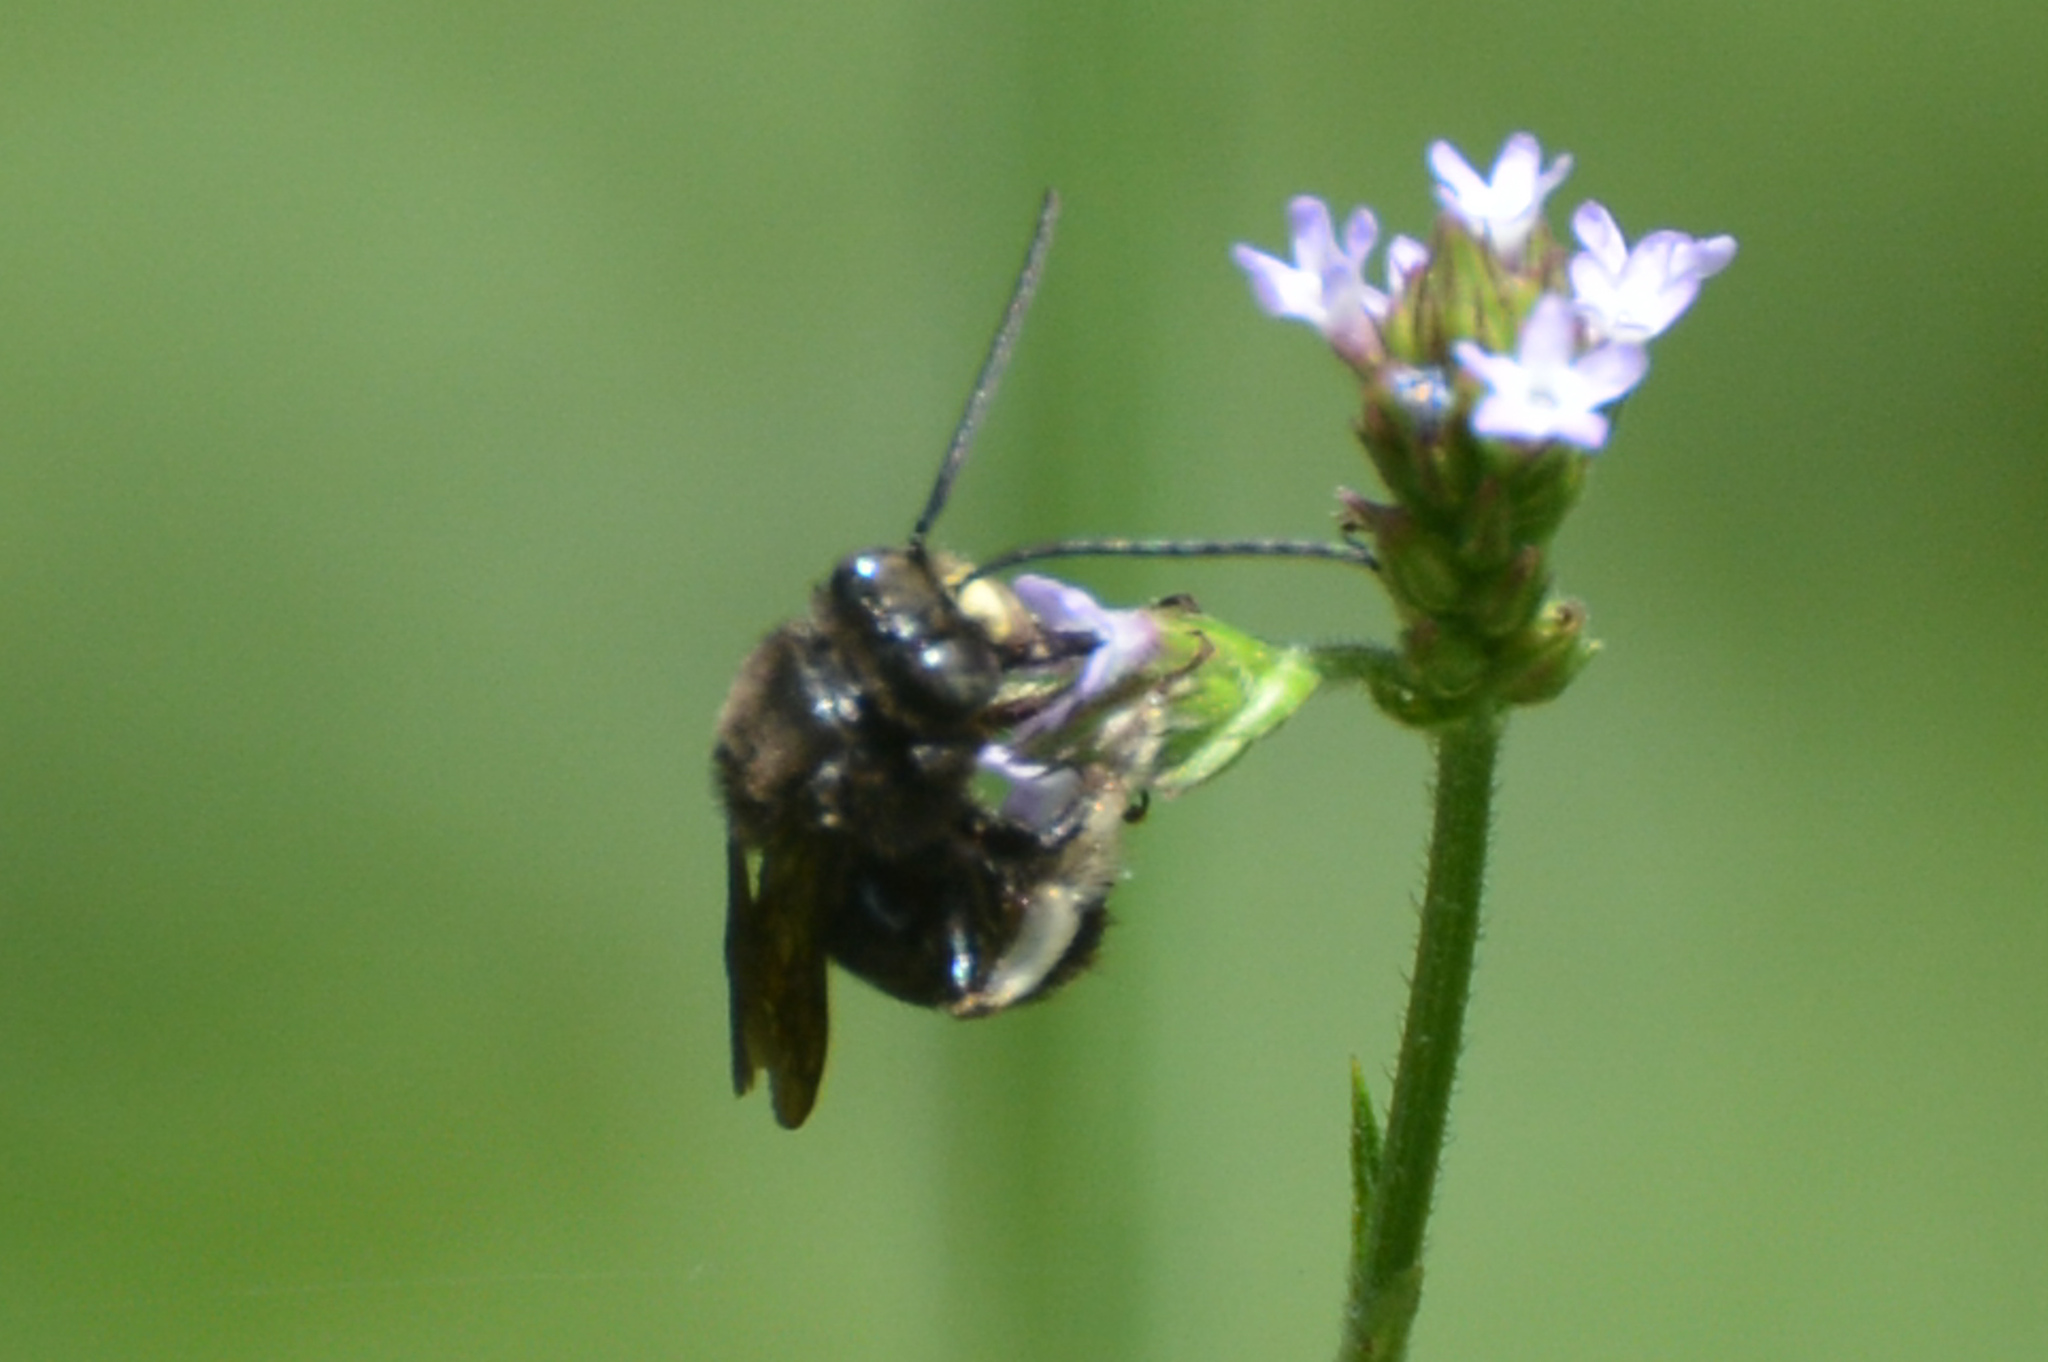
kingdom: Animalia
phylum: Arthropoda
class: Insecta
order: Hymenoptera
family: Apidae
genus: Melissodes
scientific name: Melissodes bimaculatus
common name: Two-spotted long-horned bee
